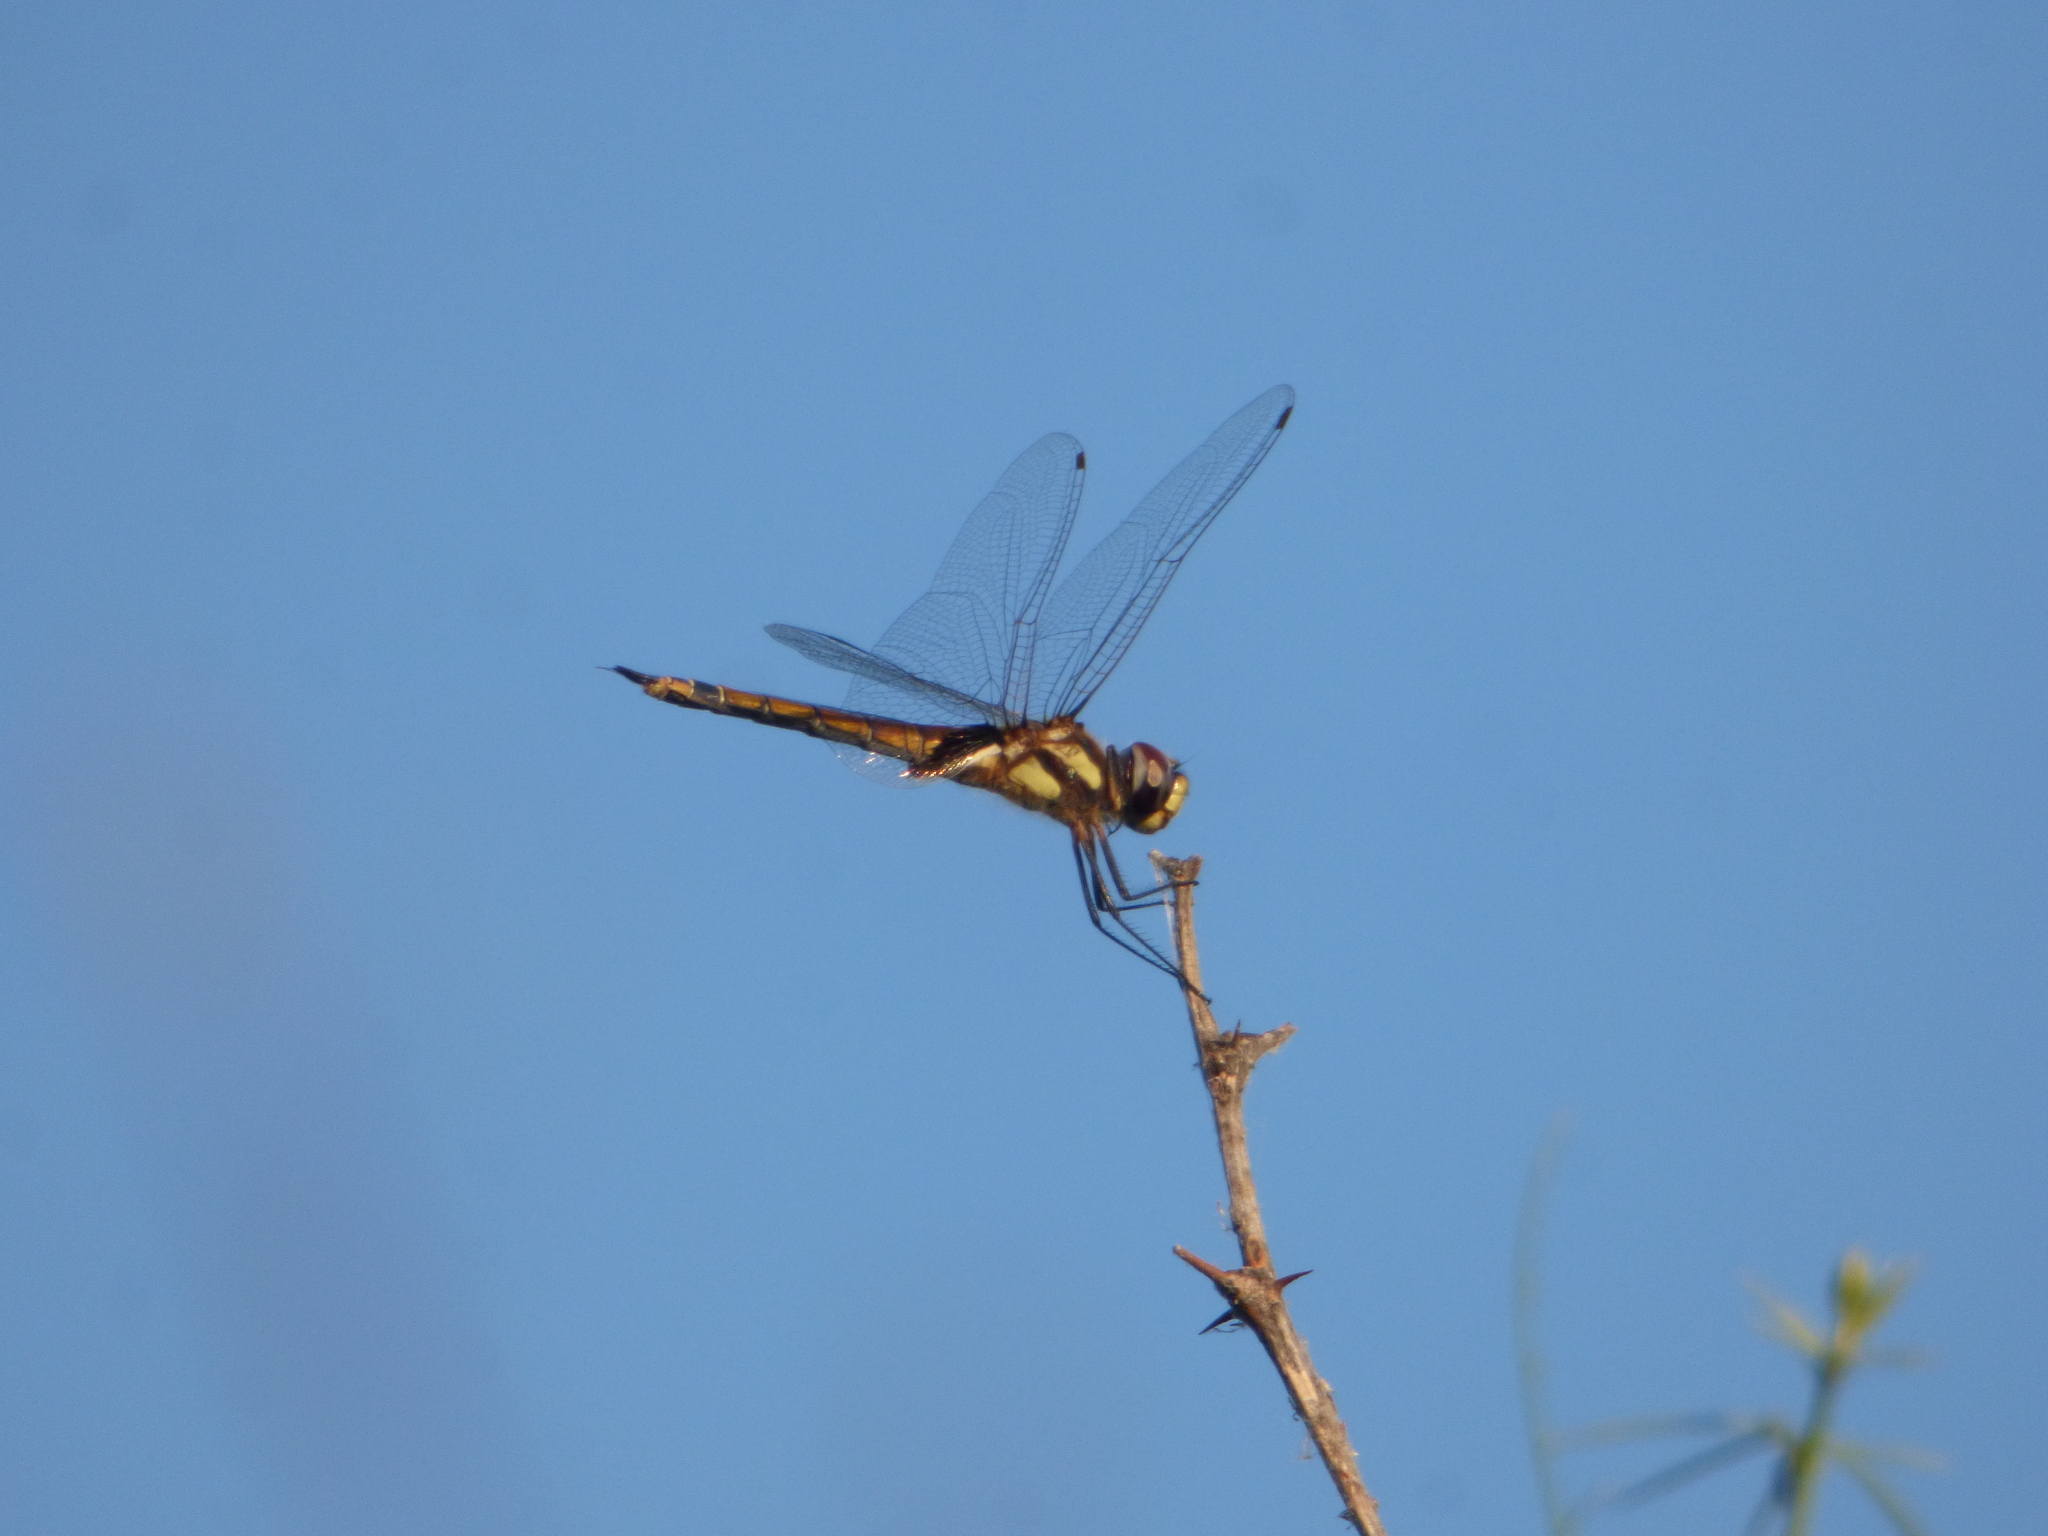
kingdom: Animalia
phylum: Arthropoda
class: Insecta
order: Odonata
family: Libellulidae
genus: Tramea
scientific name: Tramea cophysa
